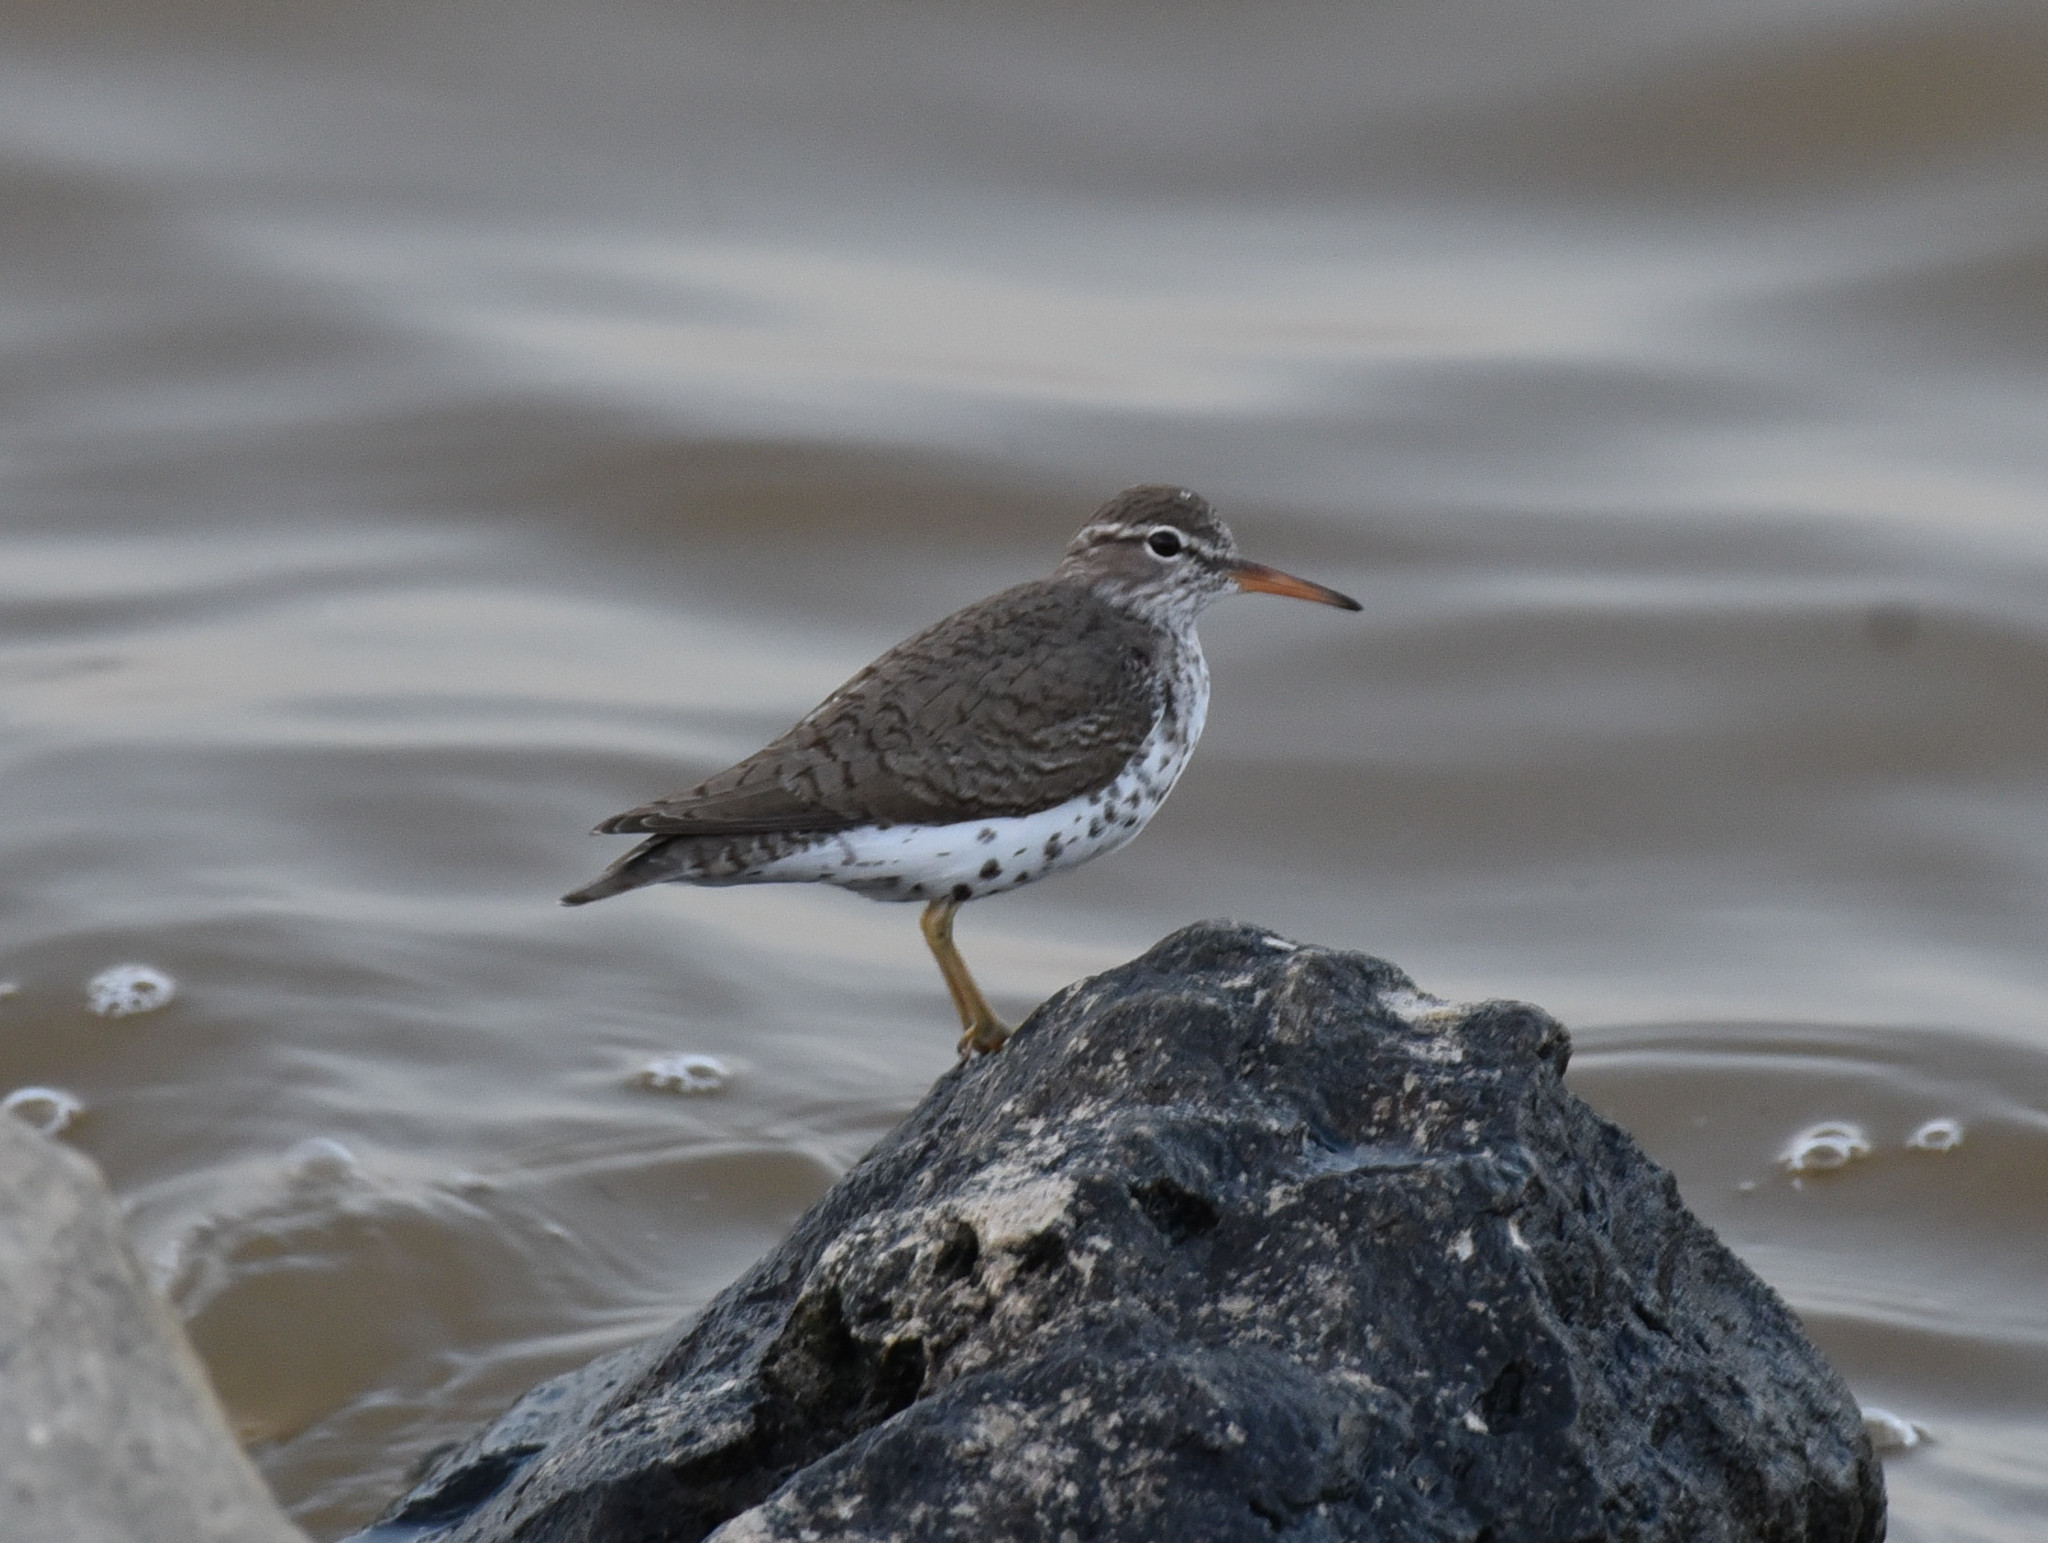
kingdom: Animalia
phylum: Chordata
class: Aves
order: Charadriiformes
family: Scolopacidae
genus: Actitis
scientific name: Actitis macularius
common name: Spotted sandpiper
